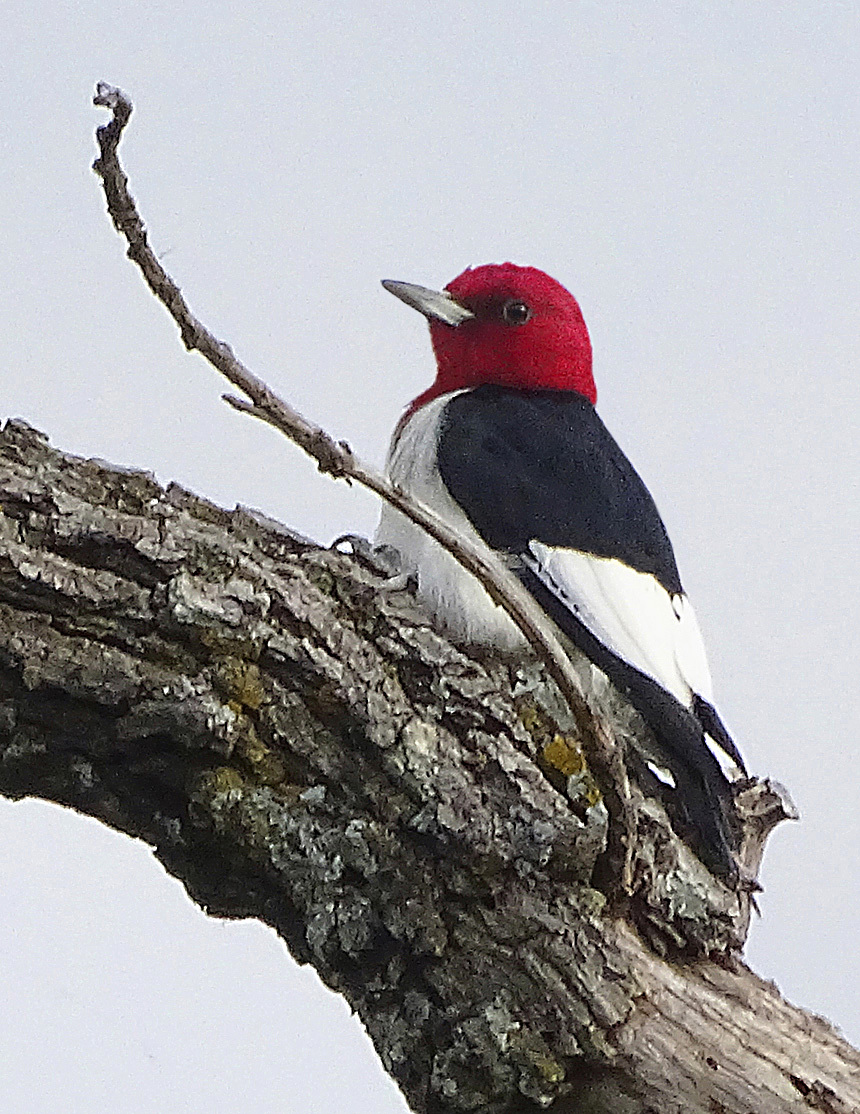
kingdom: Animalia
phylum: Chordata
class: Aves
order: Piciformes
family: Picidae
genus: Melanerpes
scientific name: Melanerpes erythrocephalus
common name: Red-headed woodpecker
